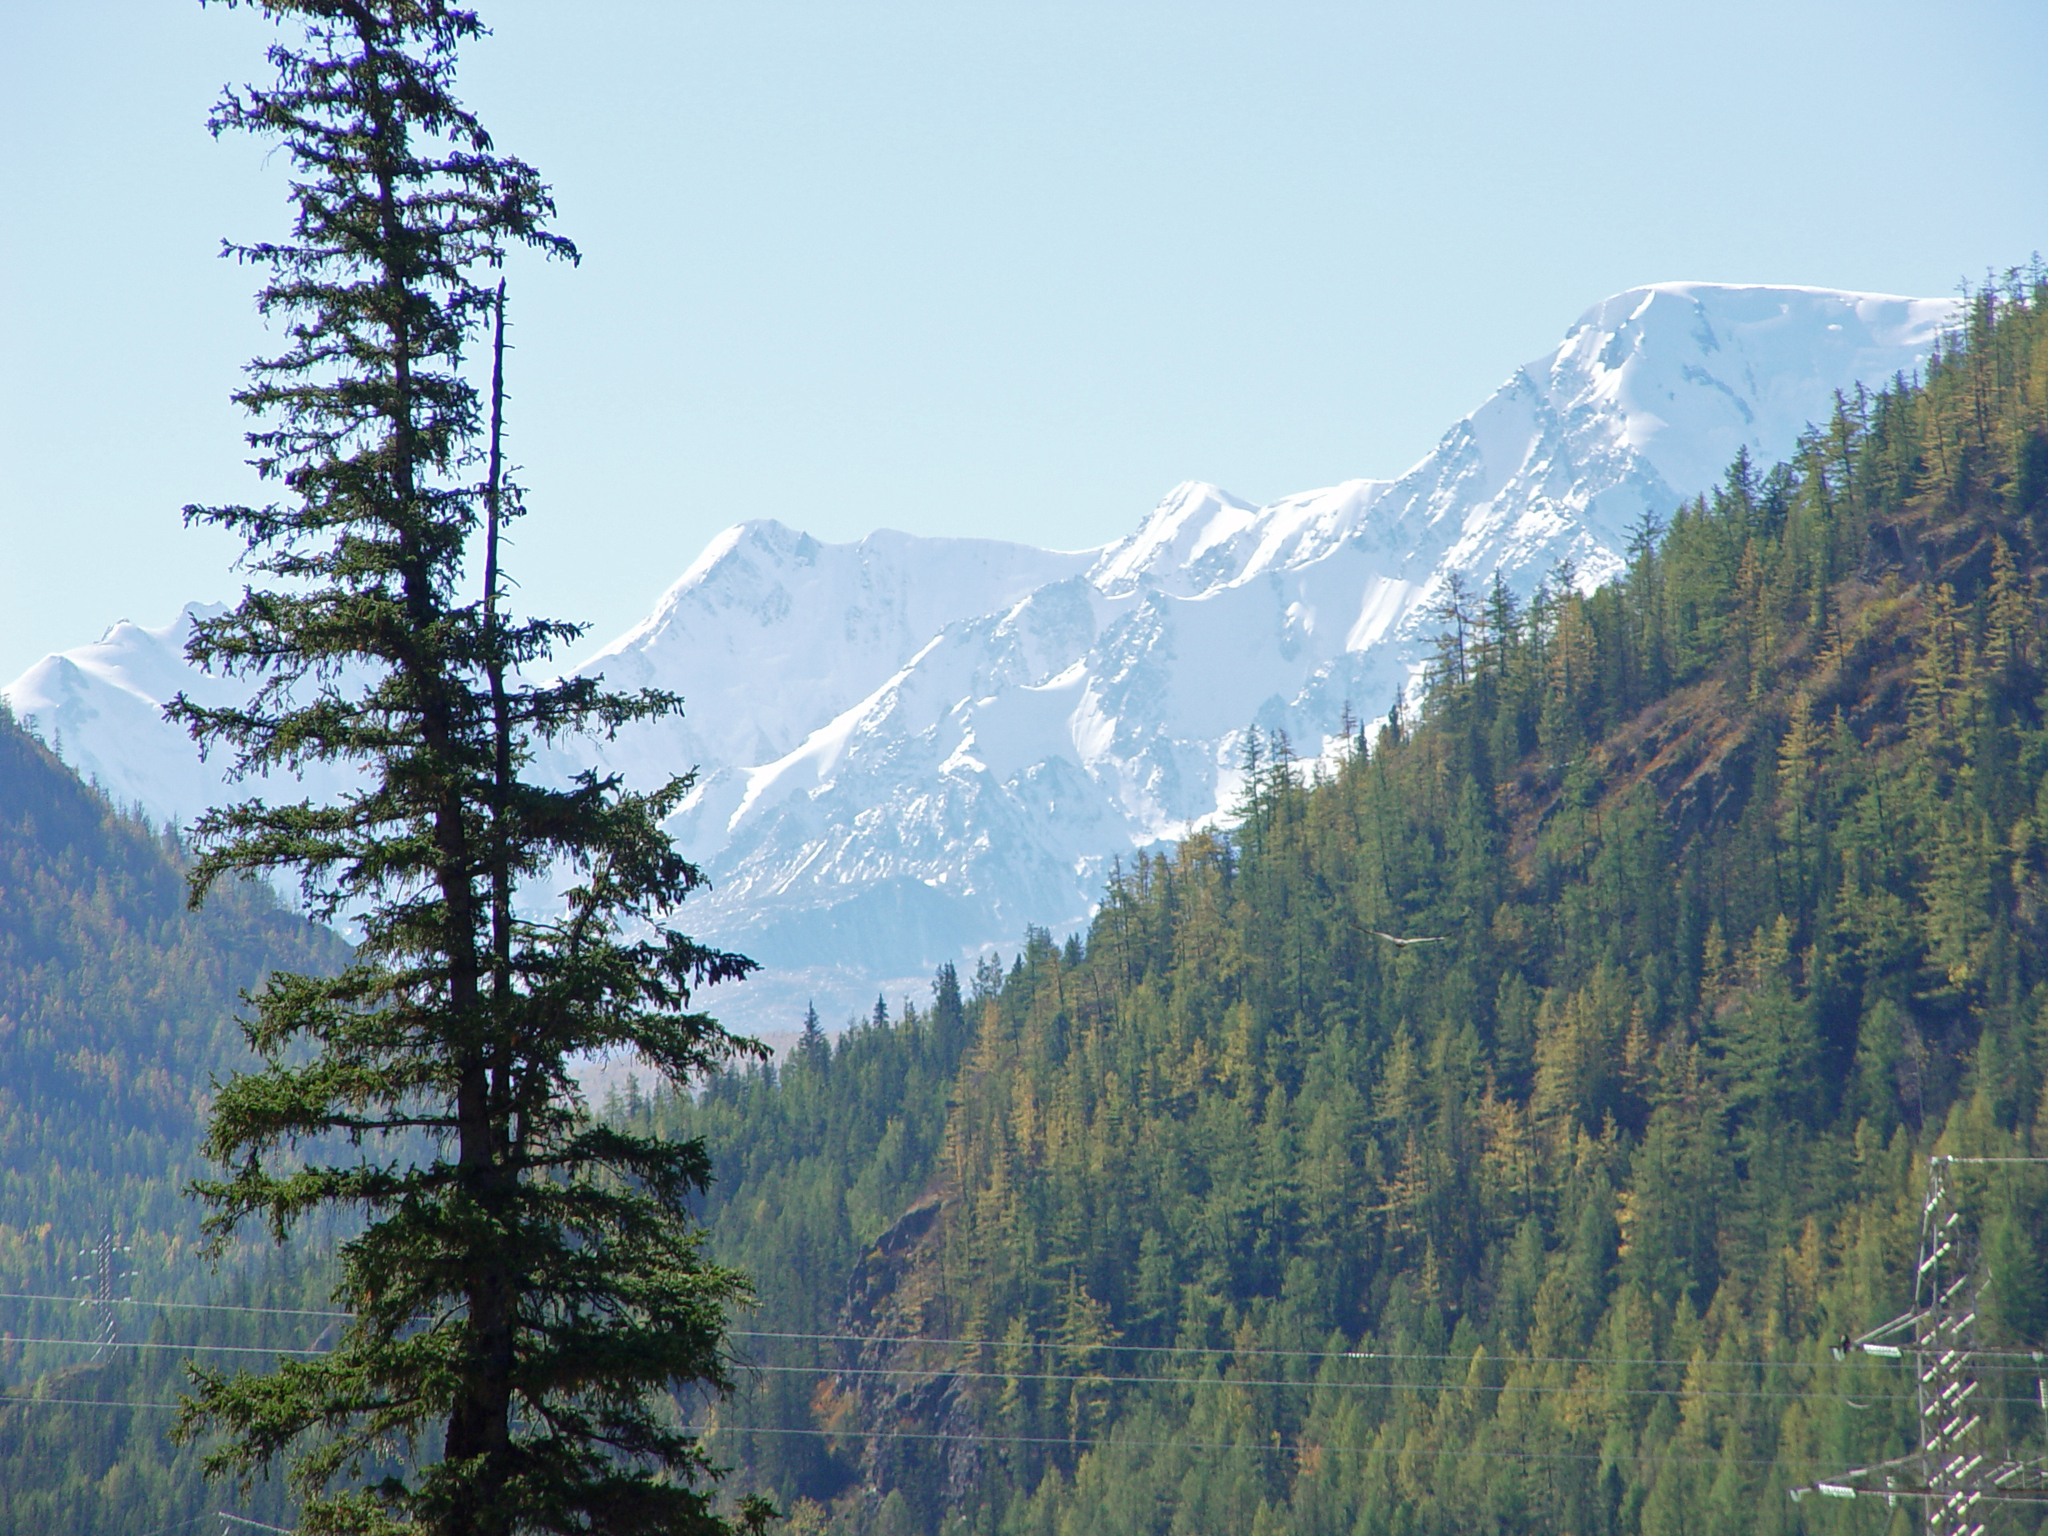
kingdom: Plantae
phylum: Tracheophyta
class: Pinopsida
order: Pinales
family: Pinaceae
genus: Picea
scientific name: Picea obovata
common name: Siberian spruce
